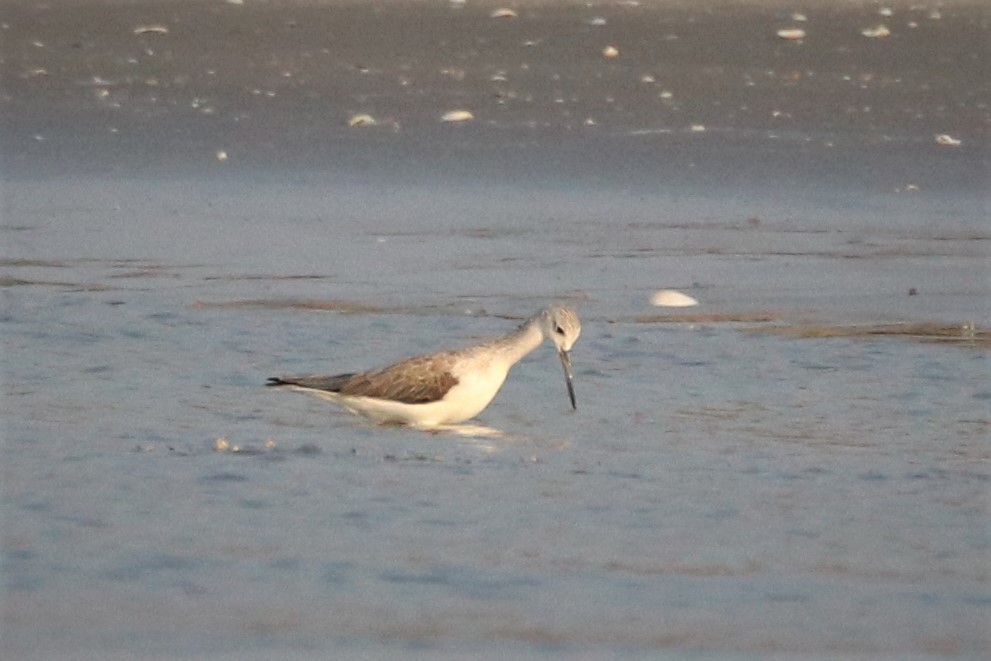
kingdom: Animalia
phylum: Chordata
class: Aves
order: Charadriiformes
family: Scolopacidae
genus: Tringa
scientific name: Tringa nebularia
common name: Common greenshank
